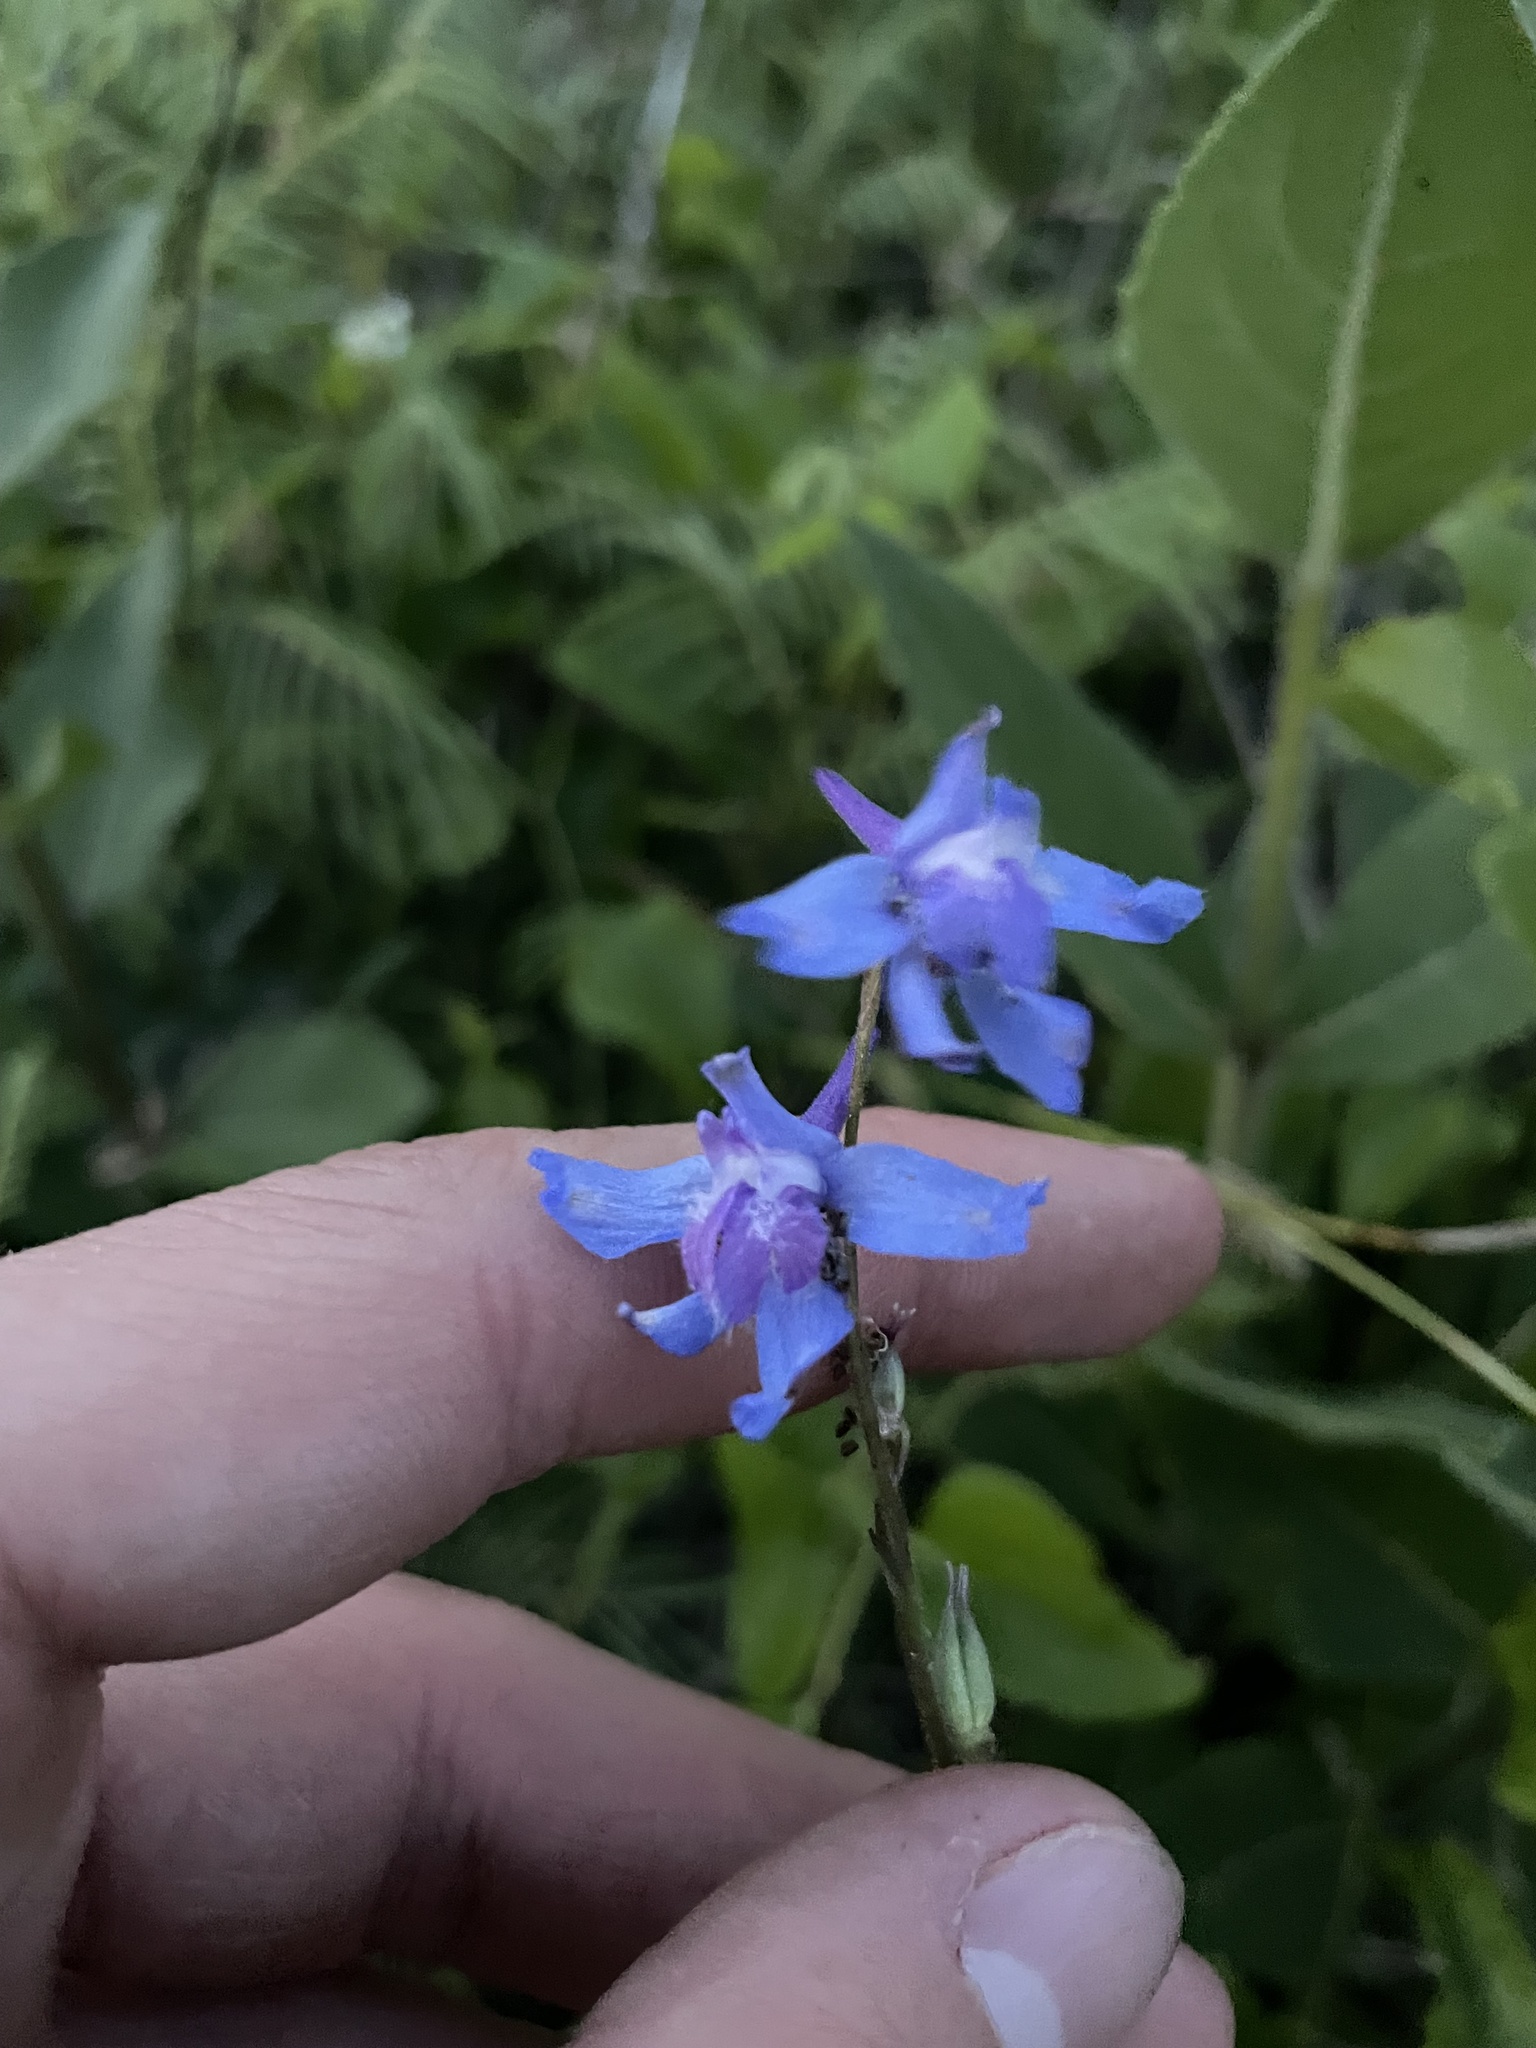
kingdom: Plantae
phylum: Tracheophyta
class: Magnoliopsida
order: Ranunculales
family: Ranunculaceae
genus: Delphinium
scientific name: Delphinium carolinianum
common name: Carolina larkspur
